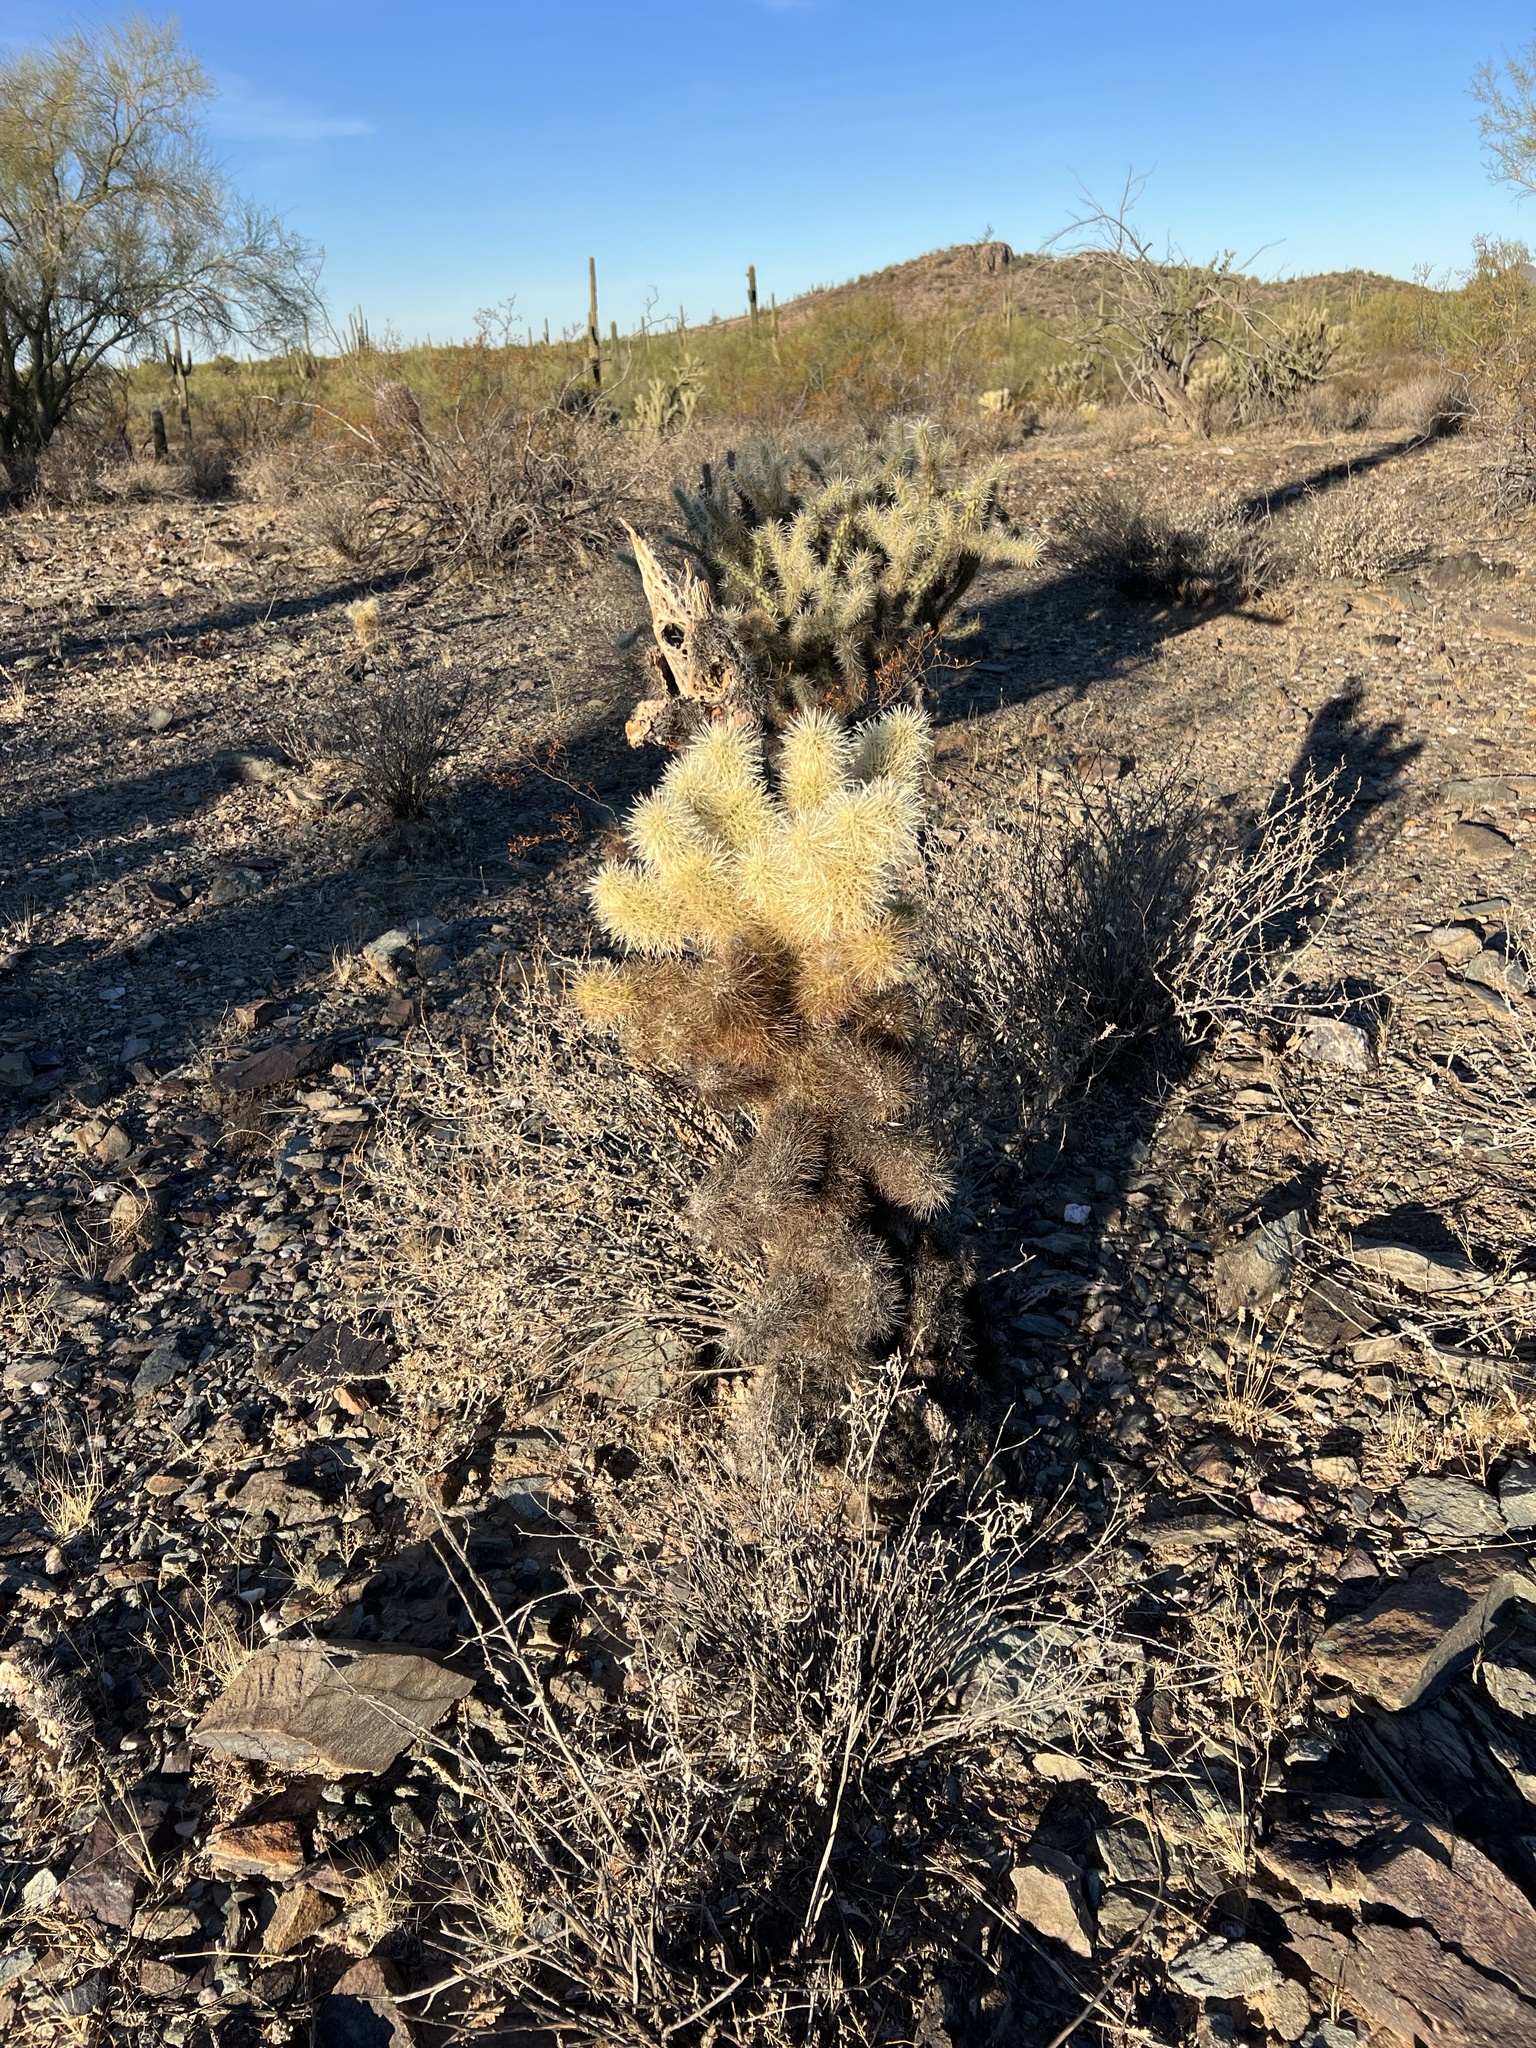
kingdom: Plantae
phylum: Tracheophyta
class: Magnoliopsida
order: Caryophyllales
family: Cactaceae
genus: Cylindropuntia
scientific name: Cylindropuntia fosbergii
